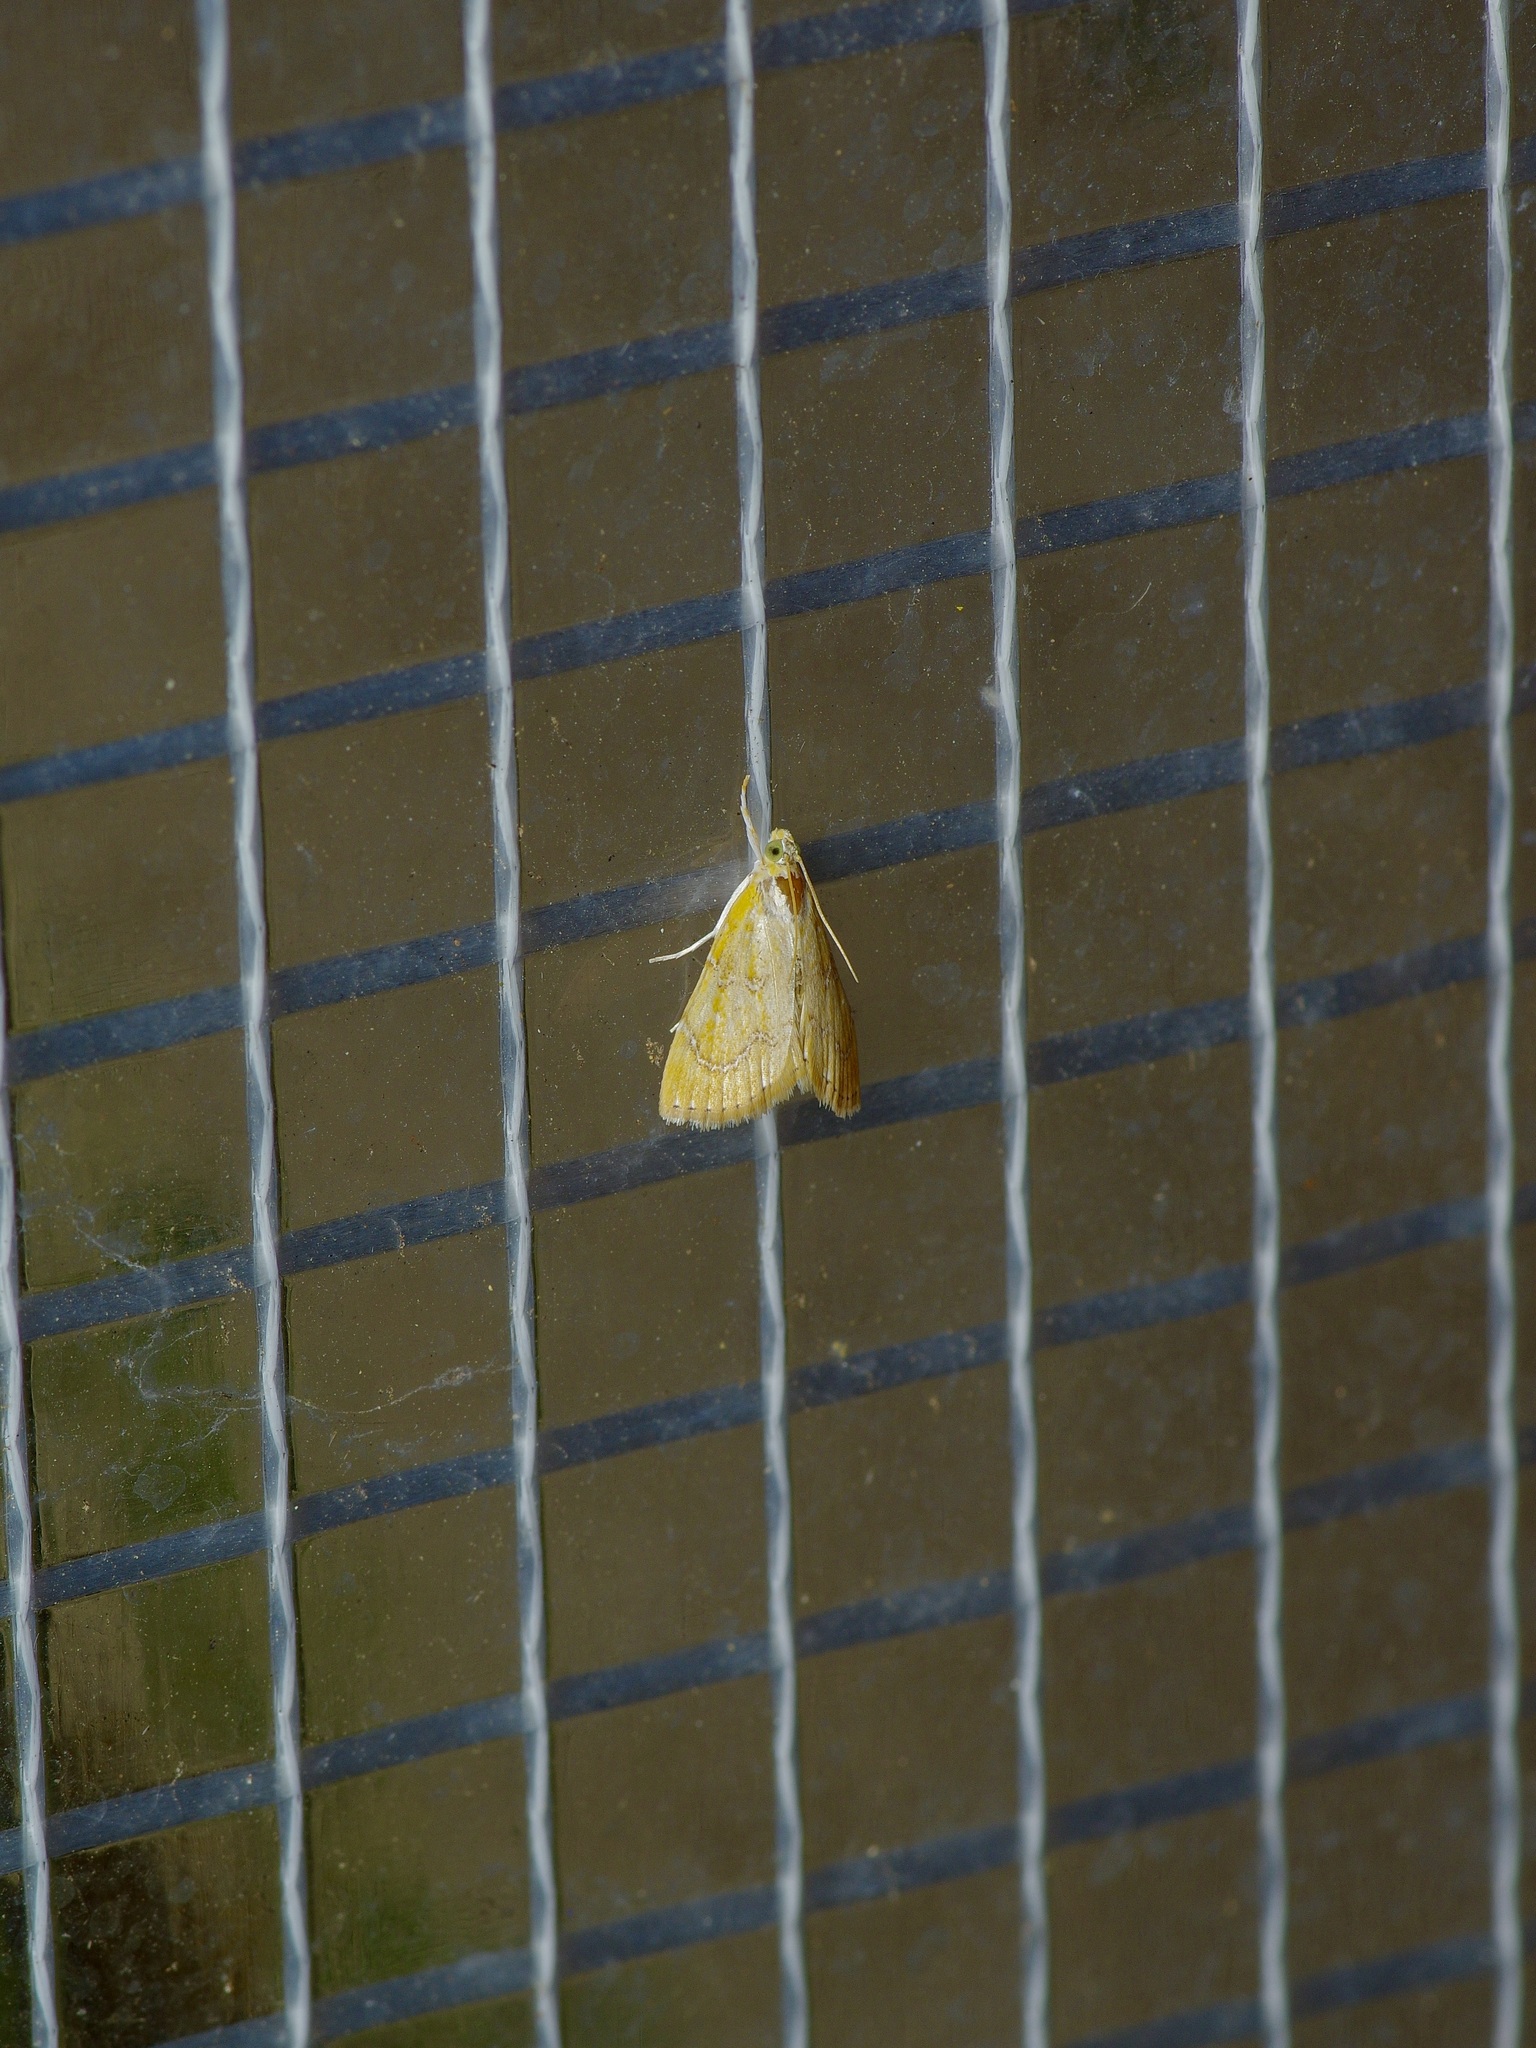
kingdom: Animalia
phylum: Arthropoda
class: Insecta
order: Lepidoptera
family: Crambidae
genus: Glaphyria
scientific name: Glaphyria sesquistrialis
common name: White-roped glaphyria
